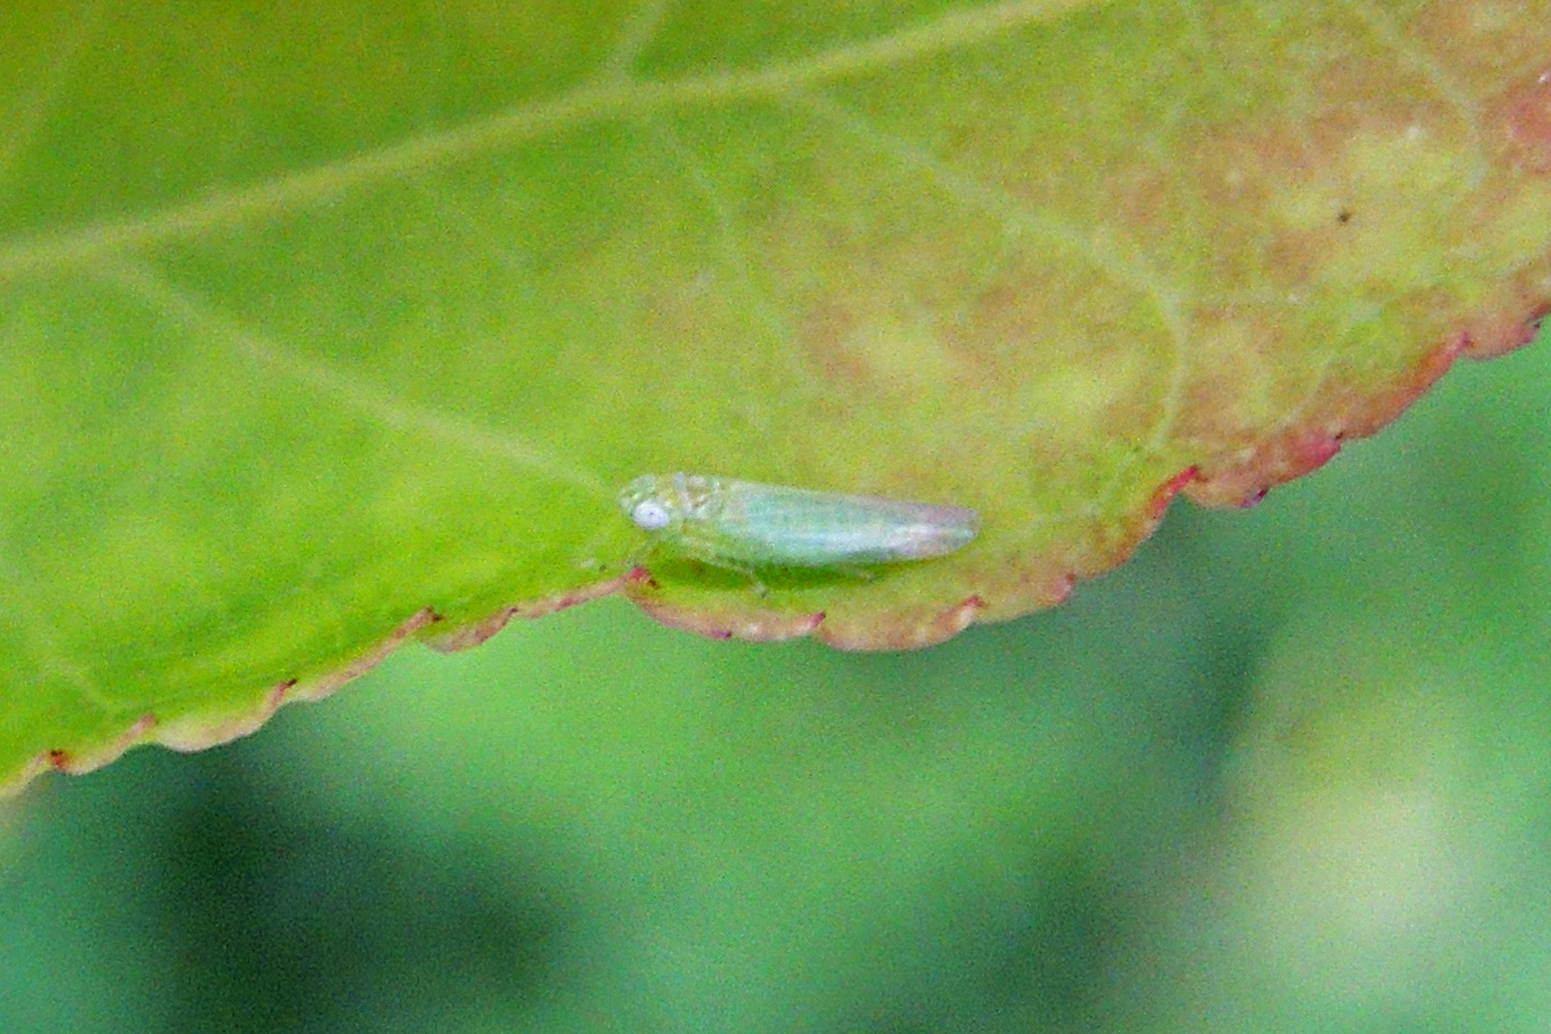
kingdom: Animalia
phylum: Arthropoda
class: Insecta
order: Hemiptera
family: Cicadellidae
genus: Empoasca
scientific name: Empoasca fabae
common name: Potato leafhopper
